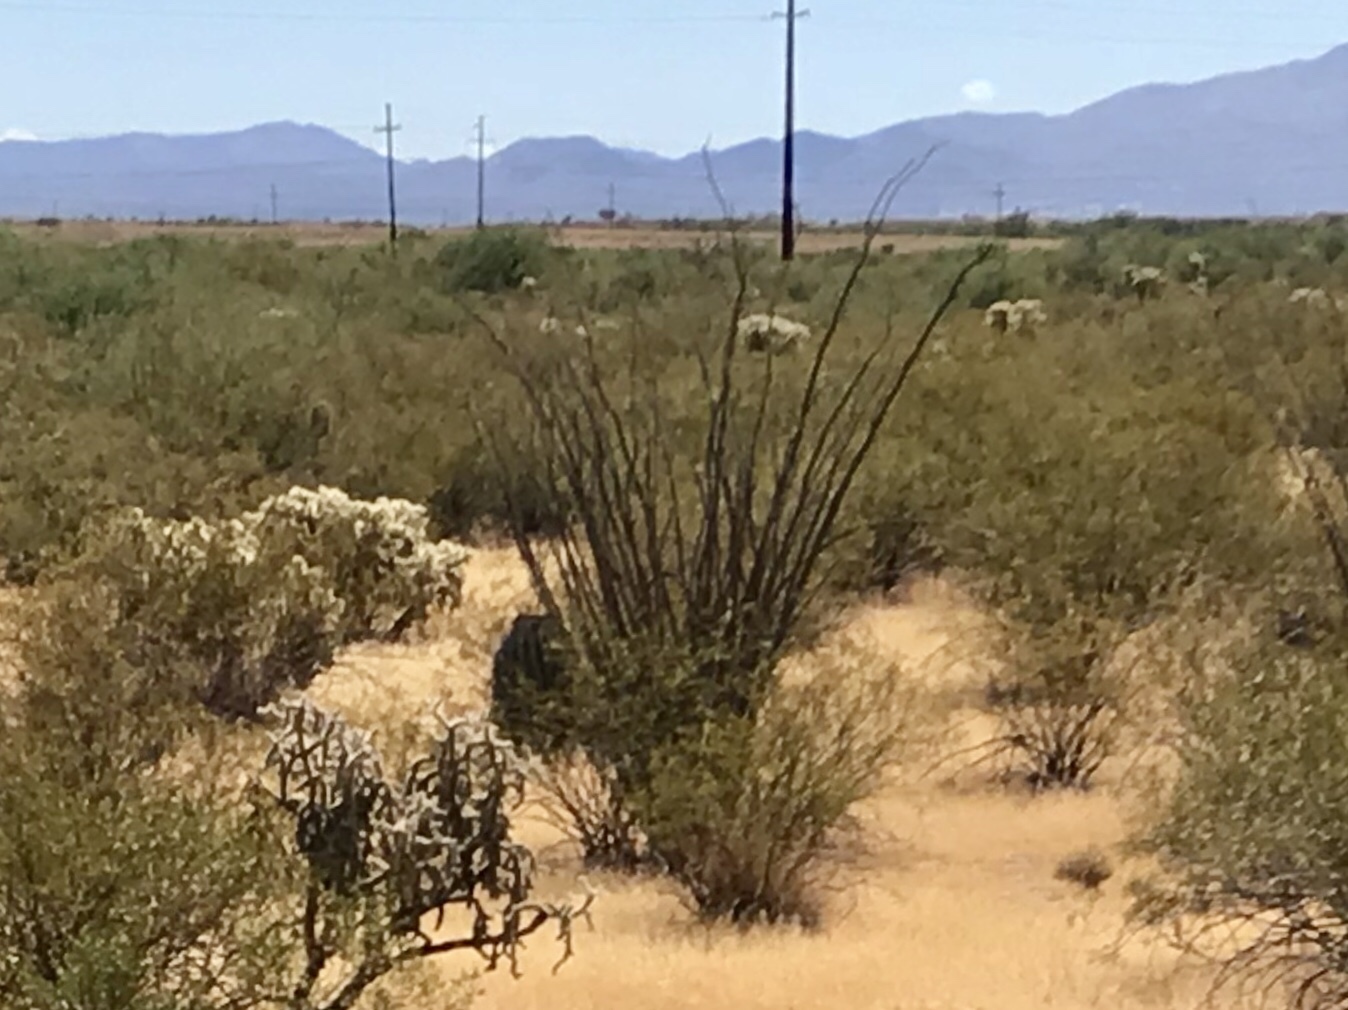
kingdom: Plantae
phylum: Tracheophyta
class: Magnoliopsida
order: Ericales
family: Fouquieriaceae
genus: Fouquieria
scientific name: Fouquieria splendens
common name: Vine-cactus
